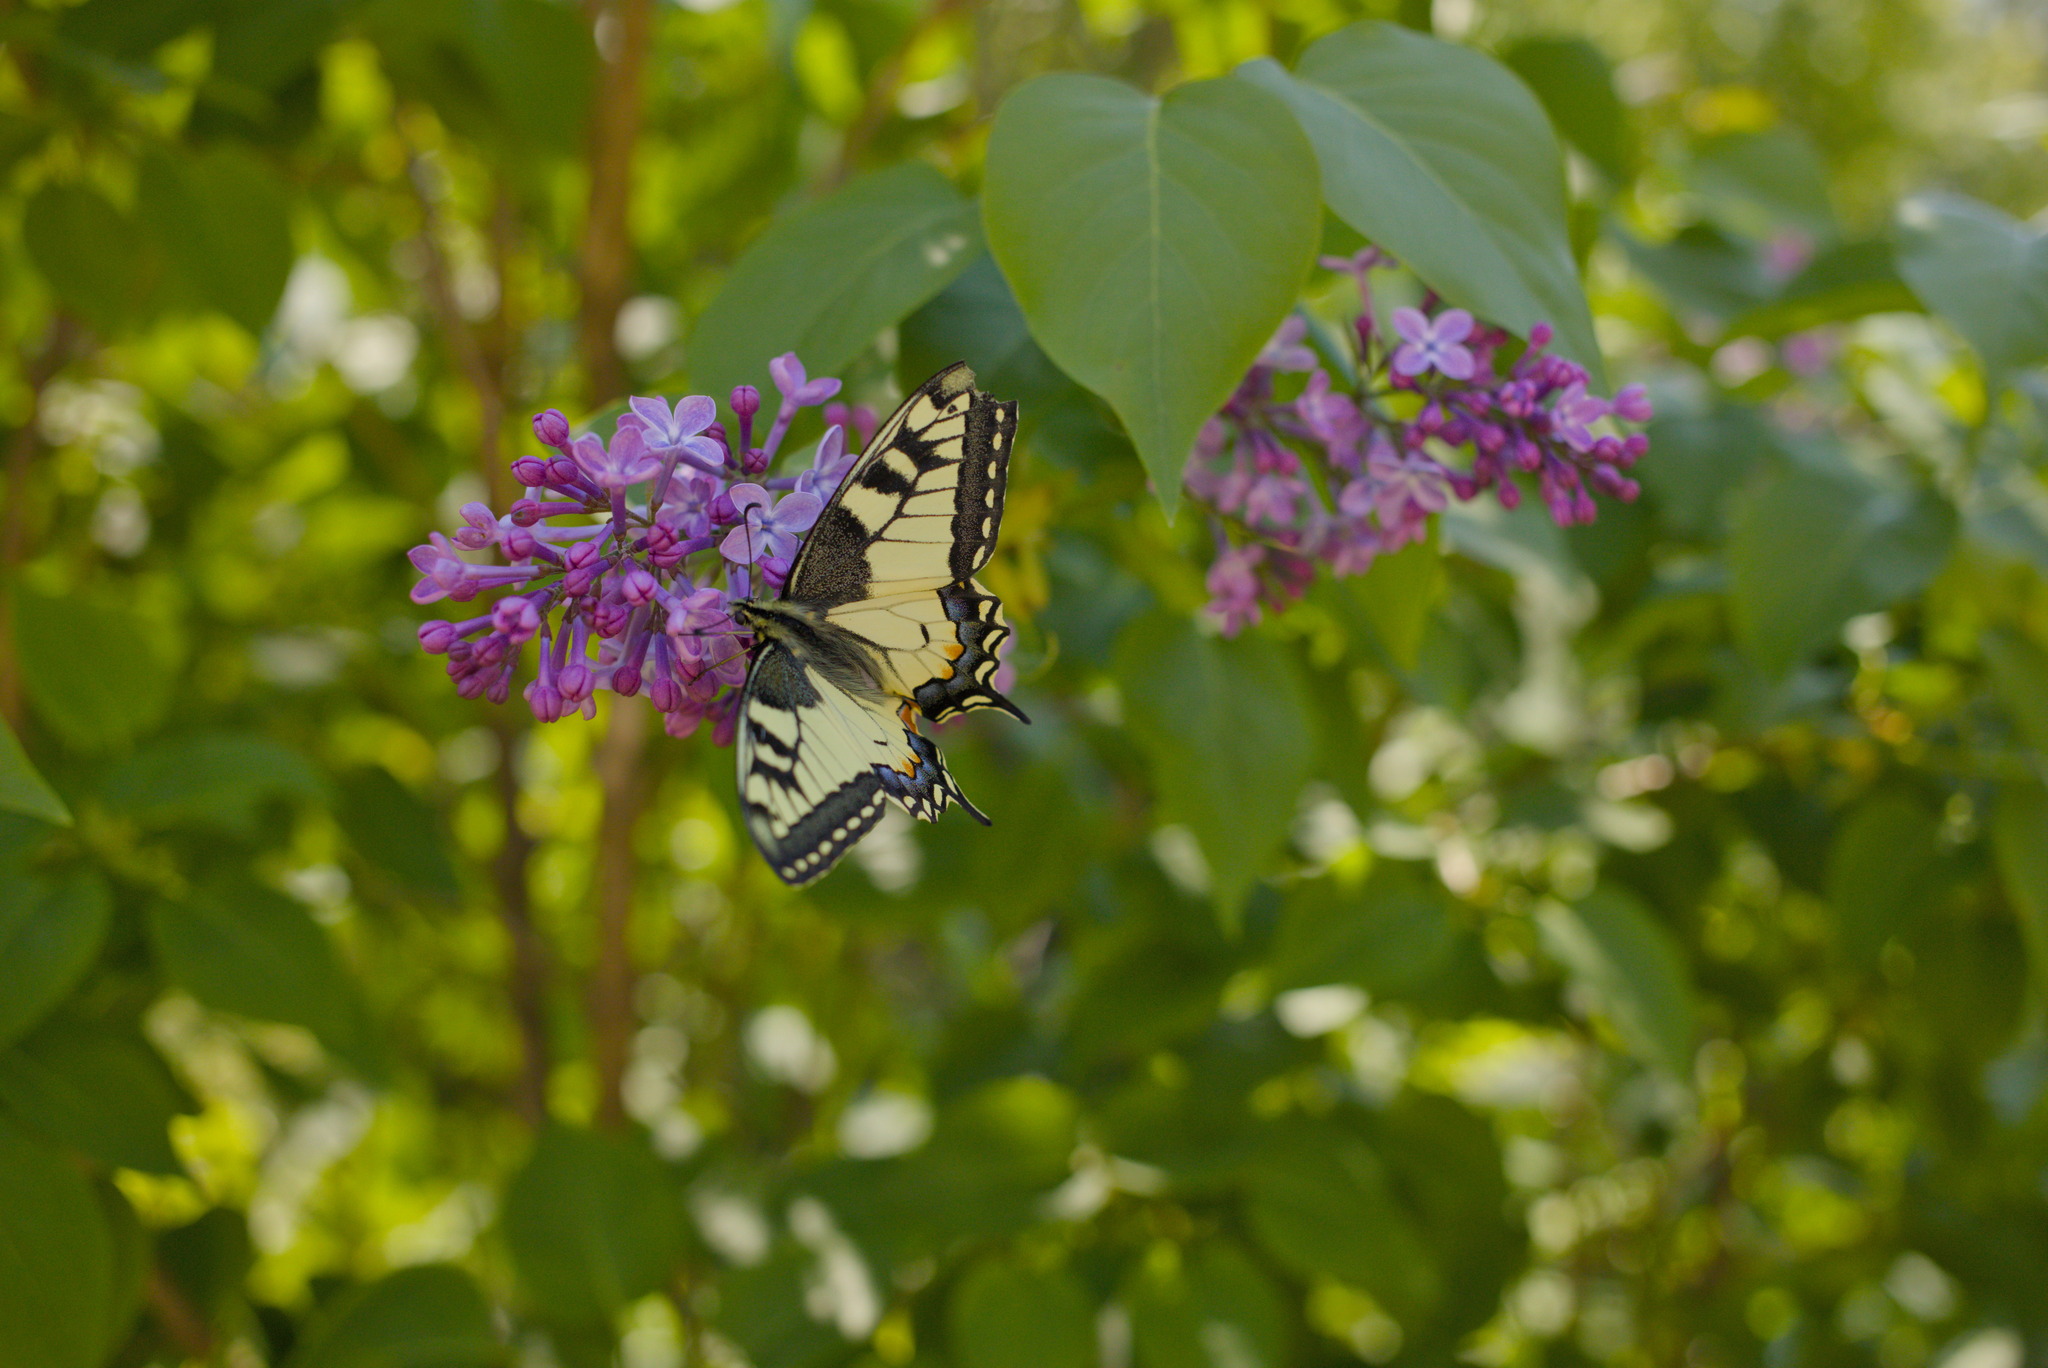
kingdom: Animalia
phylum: Arthropoda
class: Insecta
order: Lepidoptera
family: Papilionidae
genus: Papilio
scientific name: Papilio machaon
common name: Swallowtail
